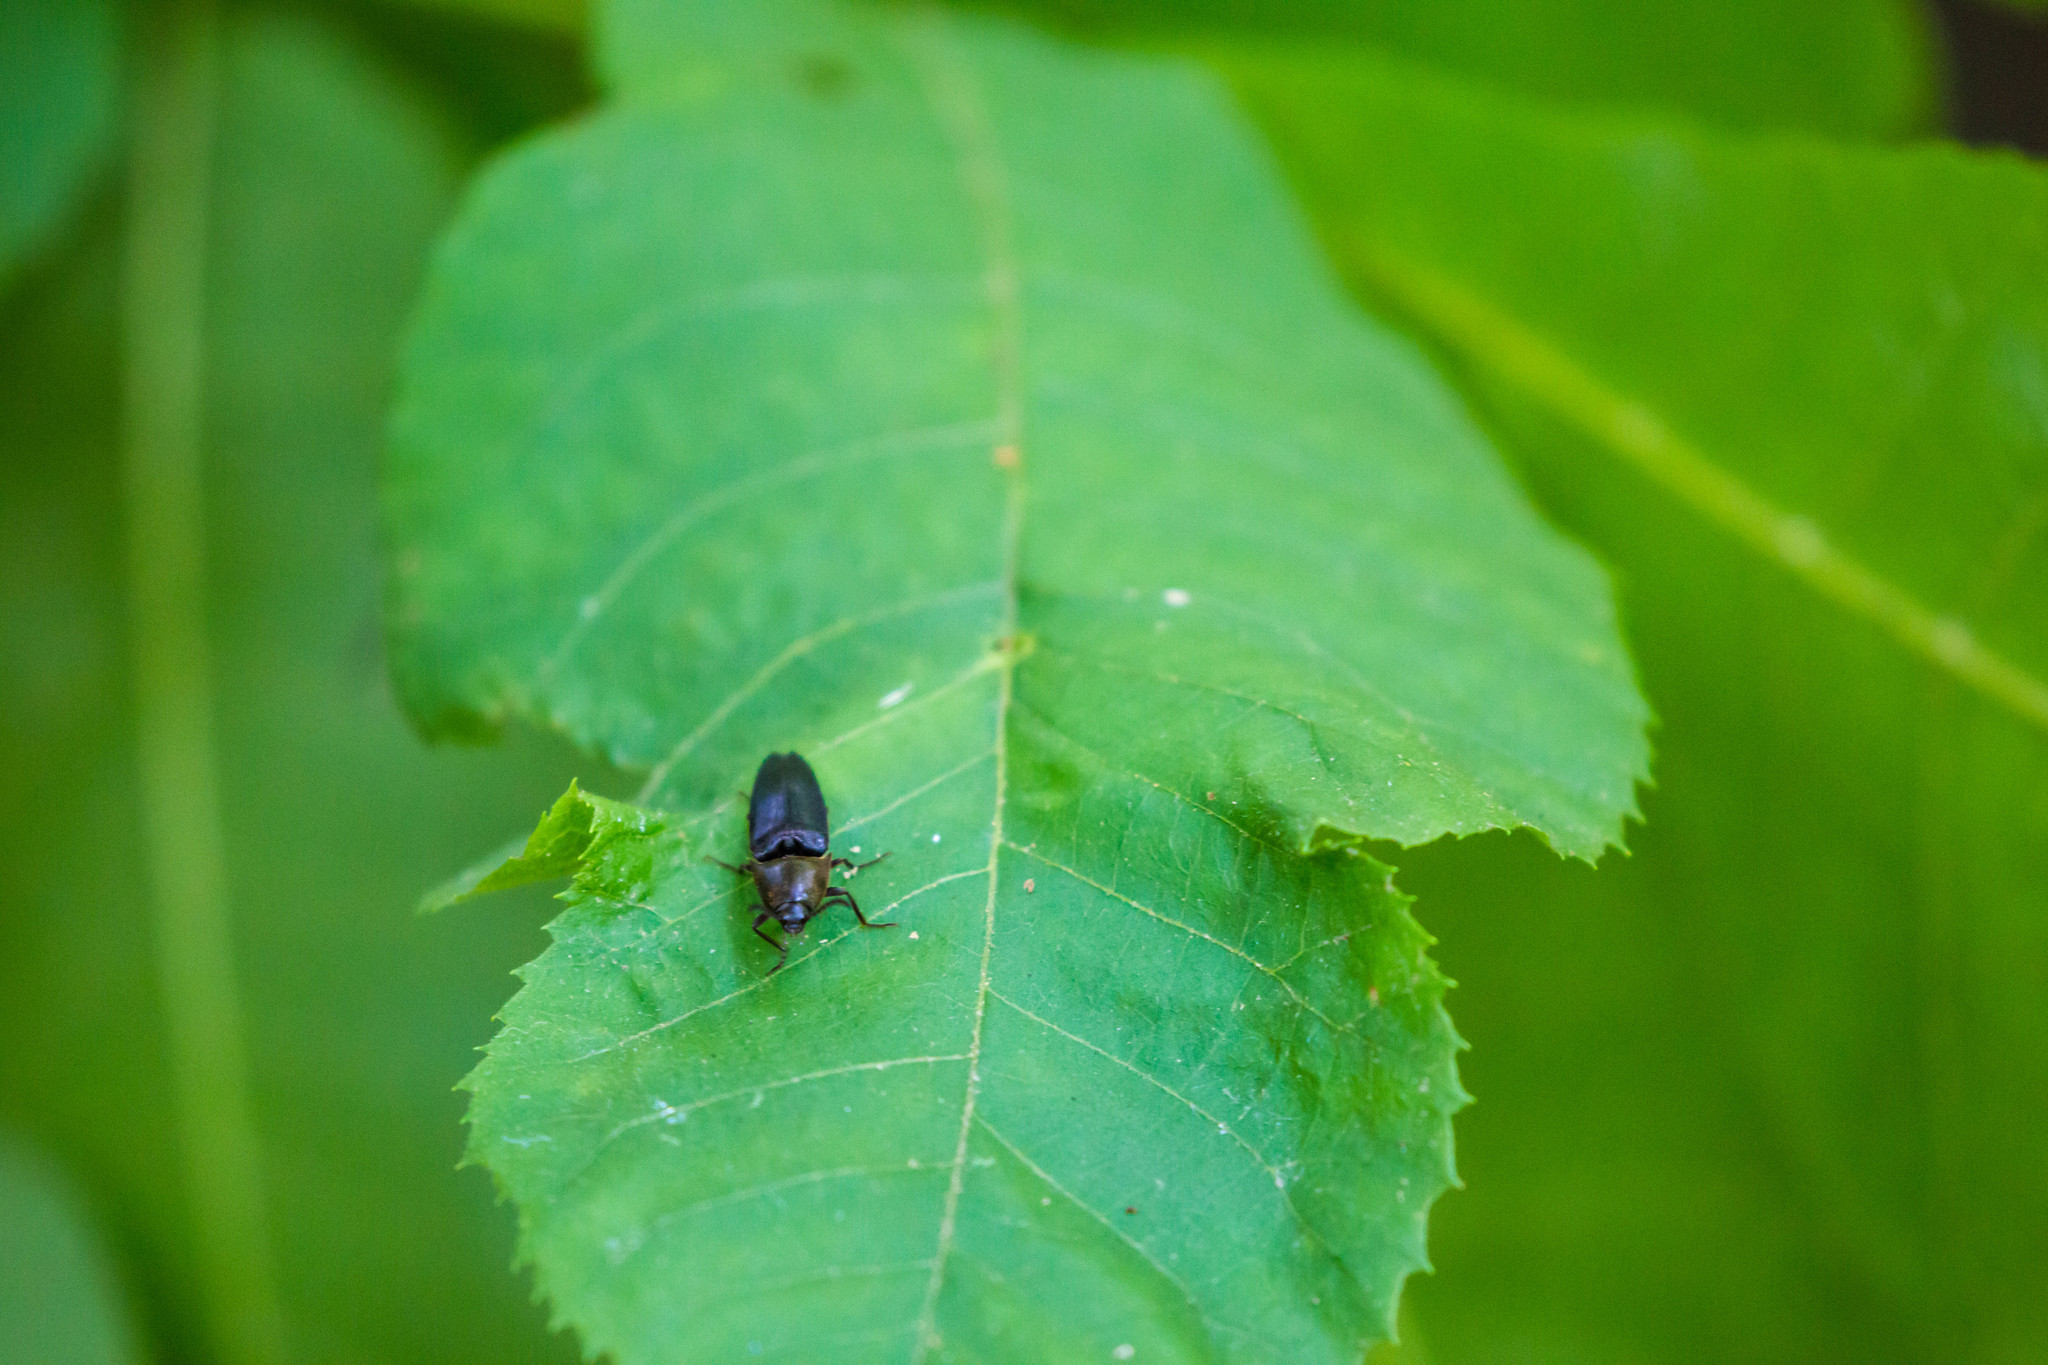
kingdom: Animalia
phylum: Arthropoda
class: Insecta
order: Coleoptera
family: Elateridae
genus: Parallelostethus
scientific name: Parallelostethus attenuatus
